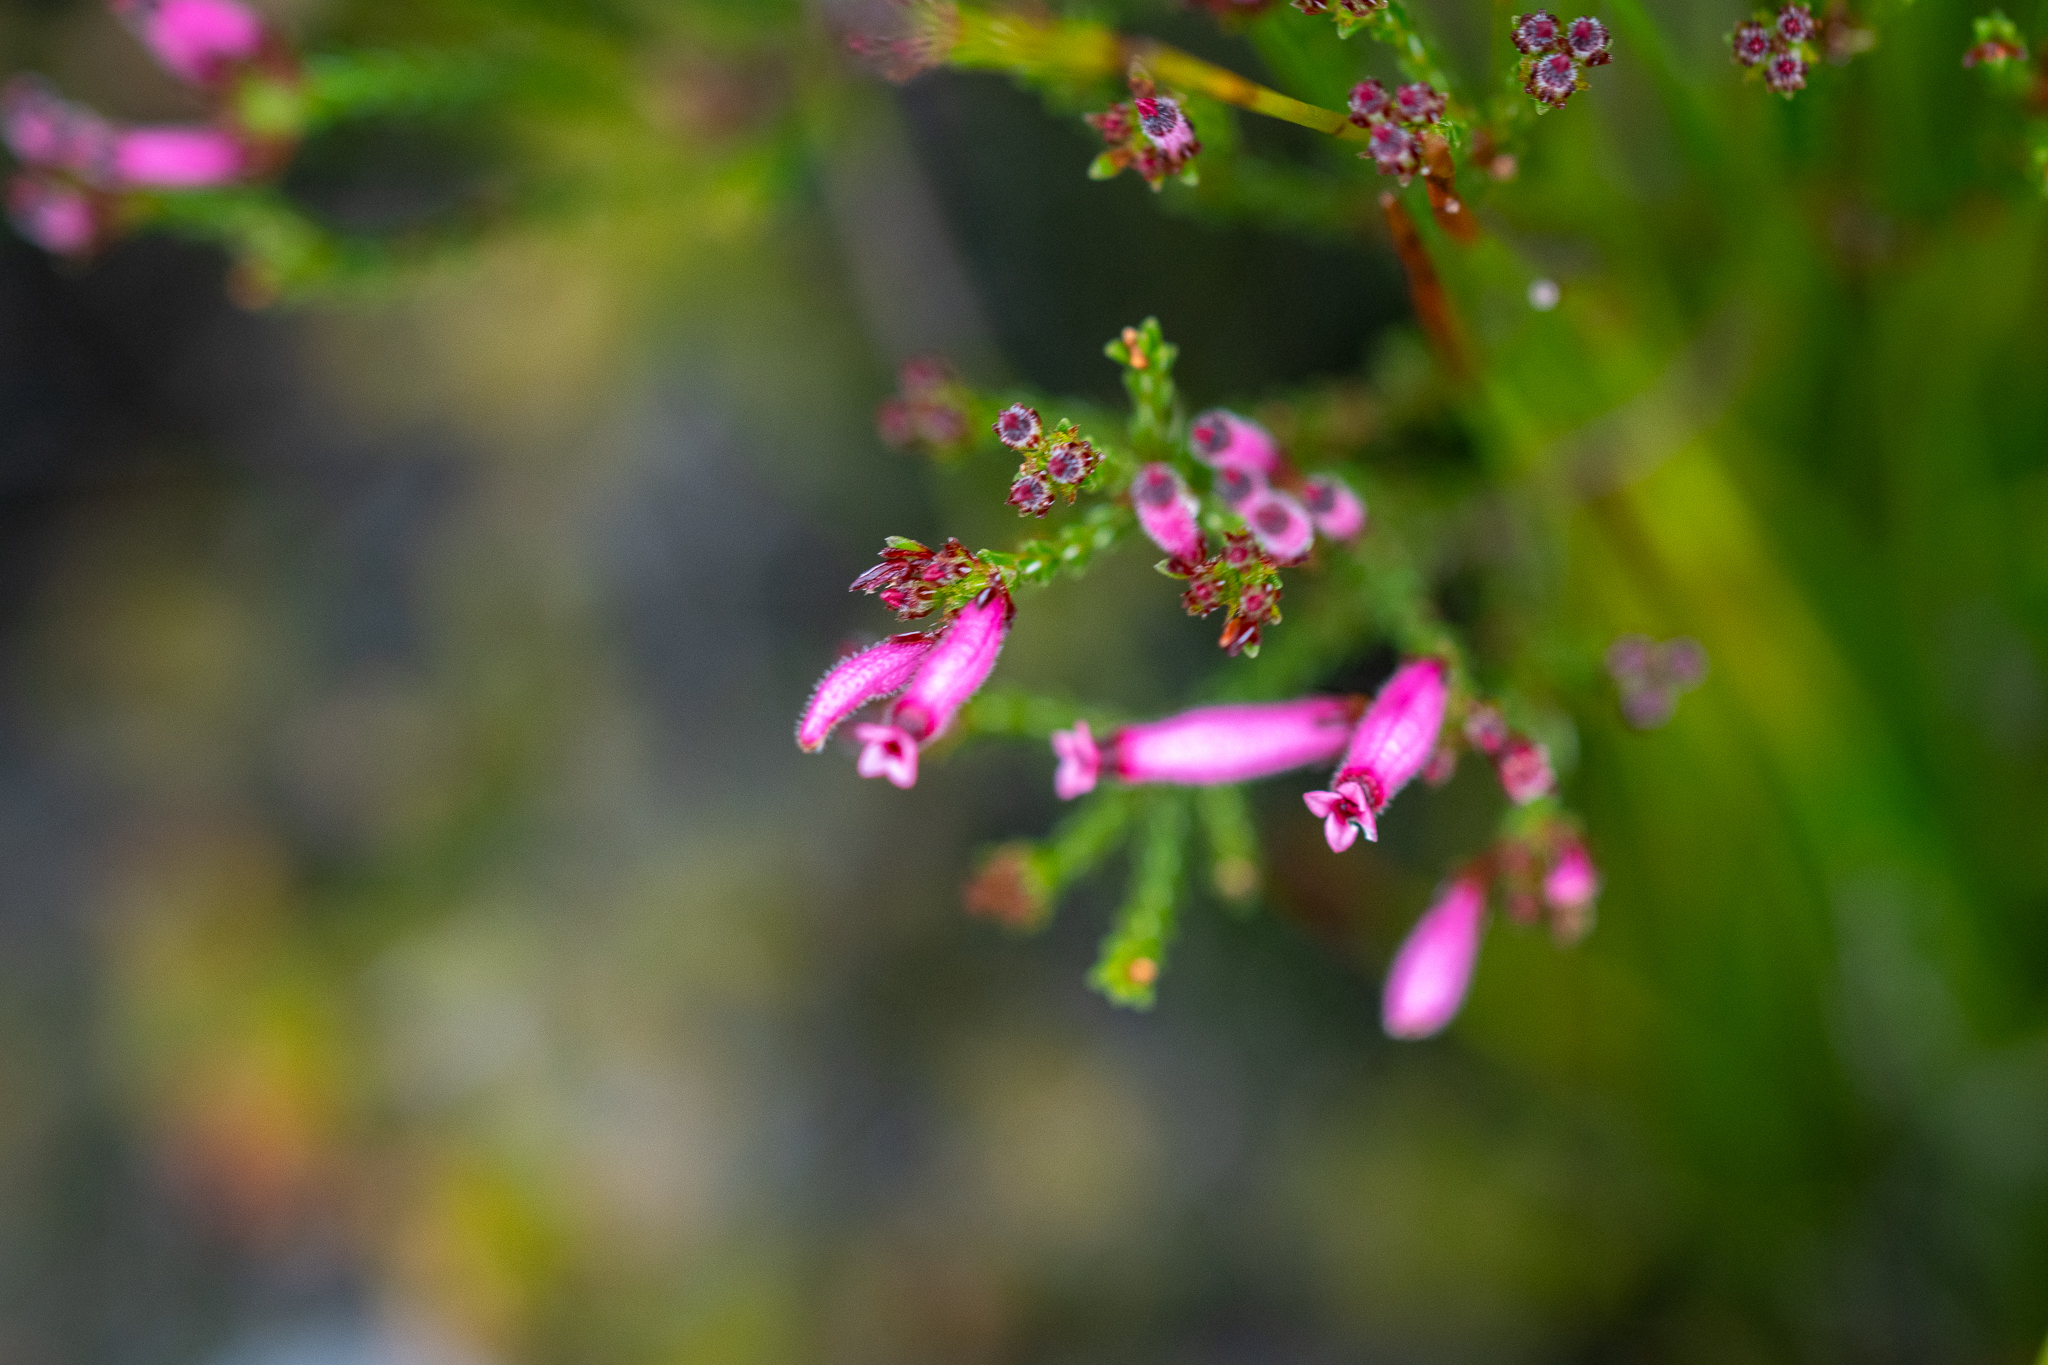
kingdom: Plantae
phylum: Tracheophyta
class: Magnoliopsida
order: Ericales
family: Ericaceae
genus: Erica
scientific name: Erica cristata
